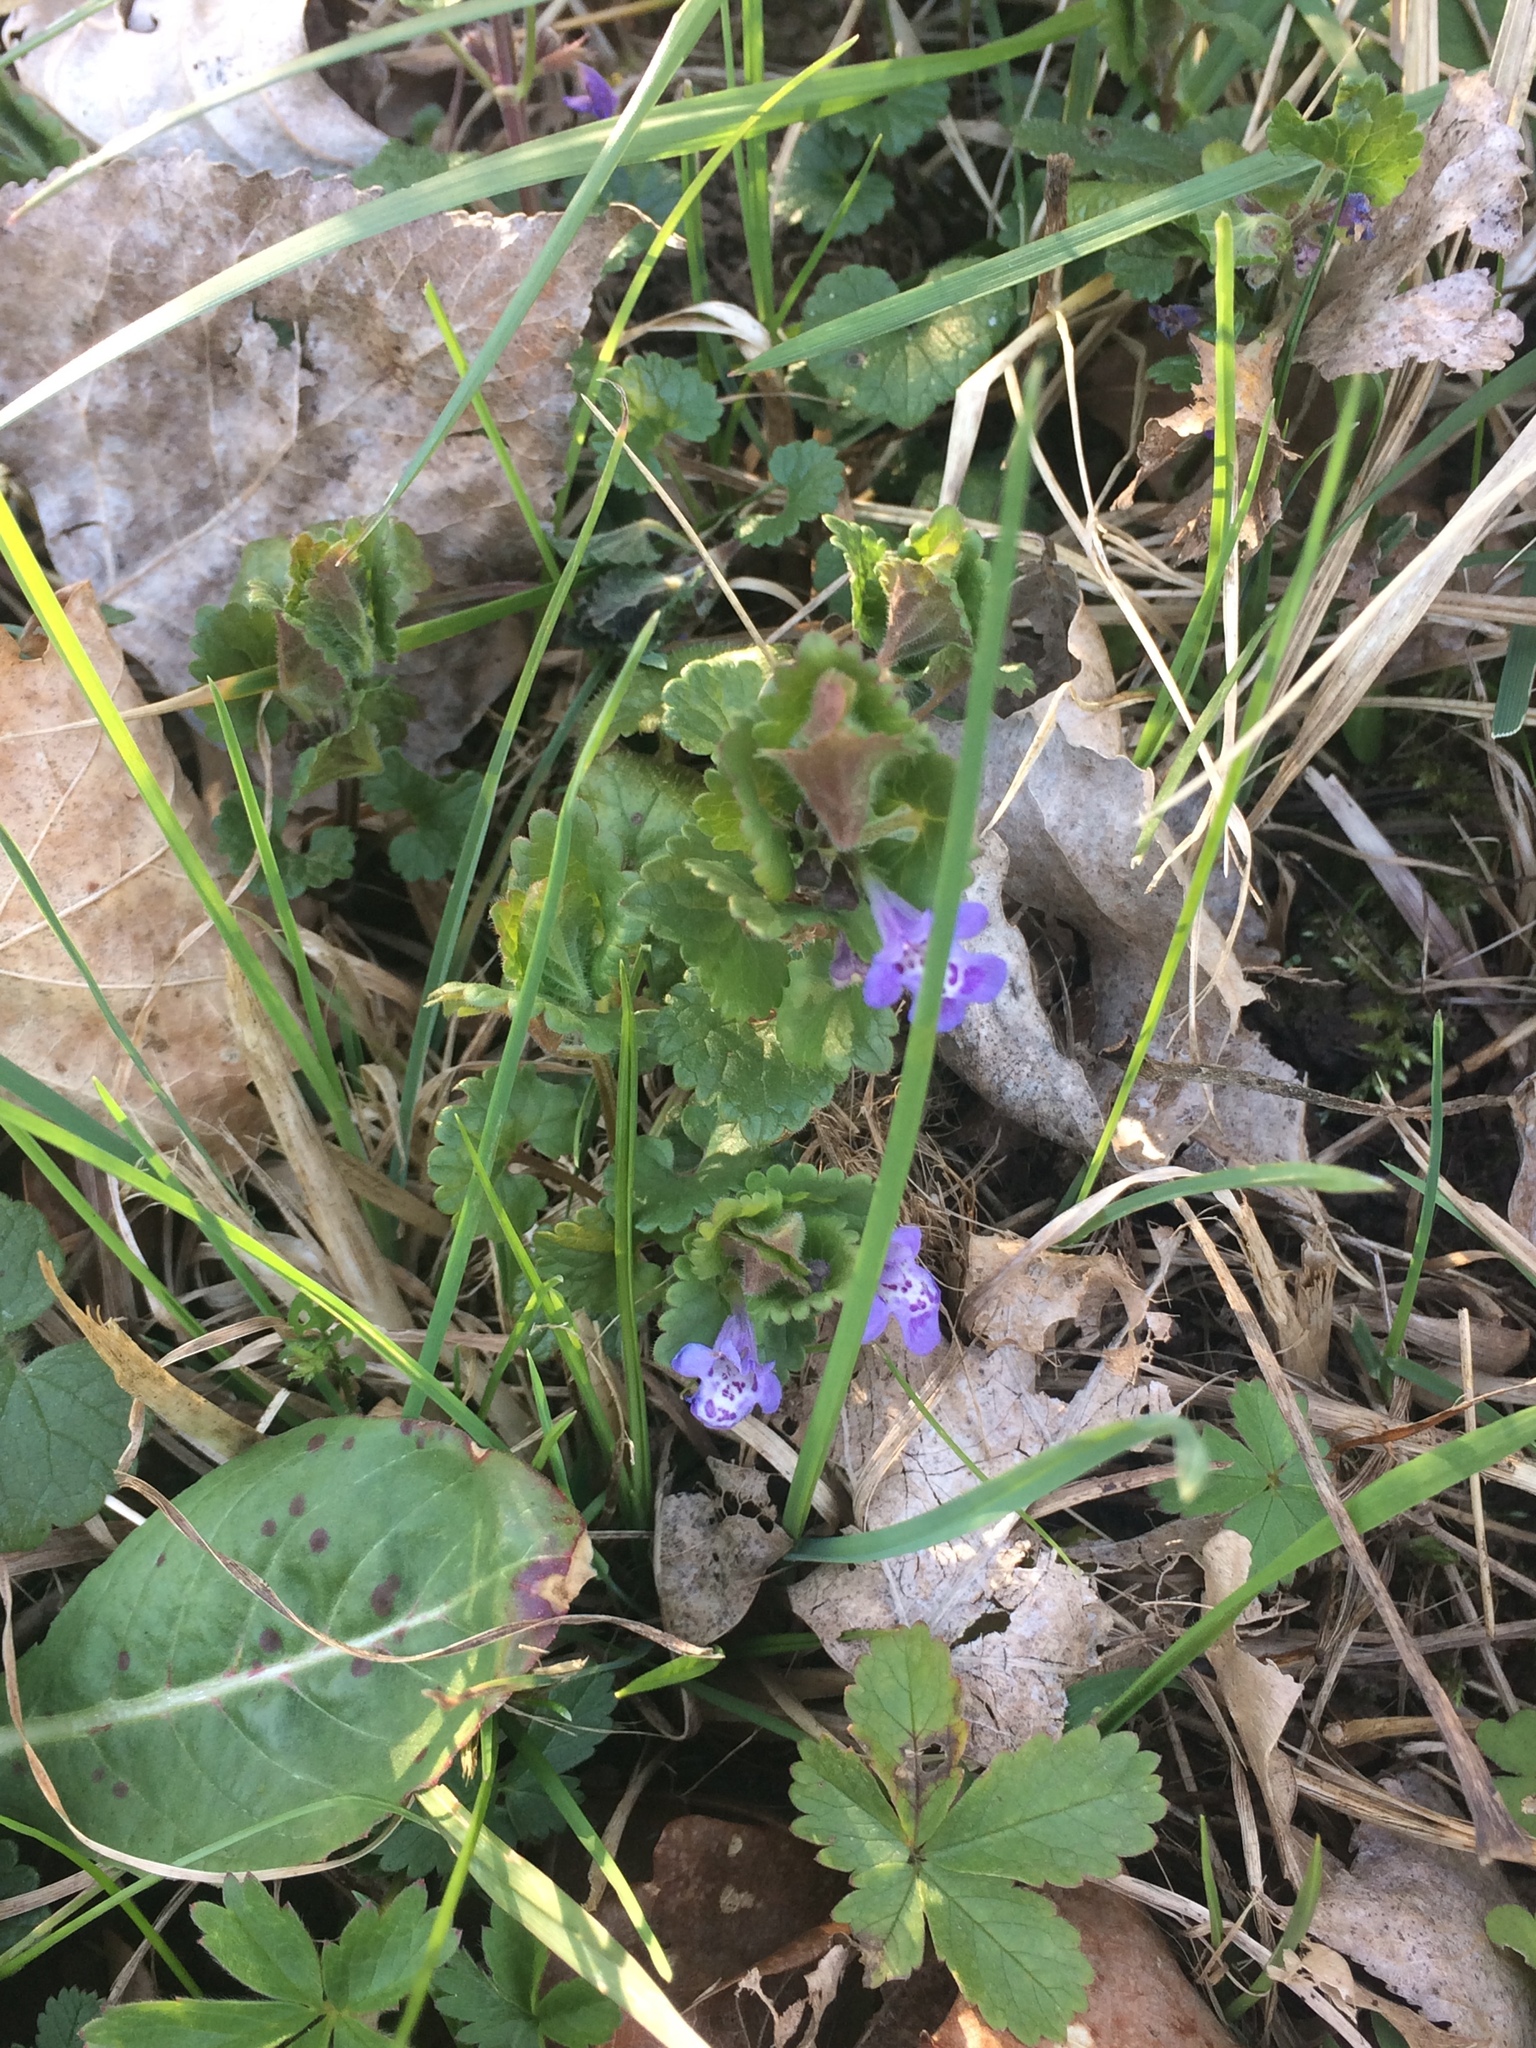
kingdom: Plantae
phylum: Tracheophyta
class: Magnoliopsida
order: Lamiales
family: Lamiaceae
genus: Glechoma
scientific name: Glechoma hederacea
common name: Ground ivy
